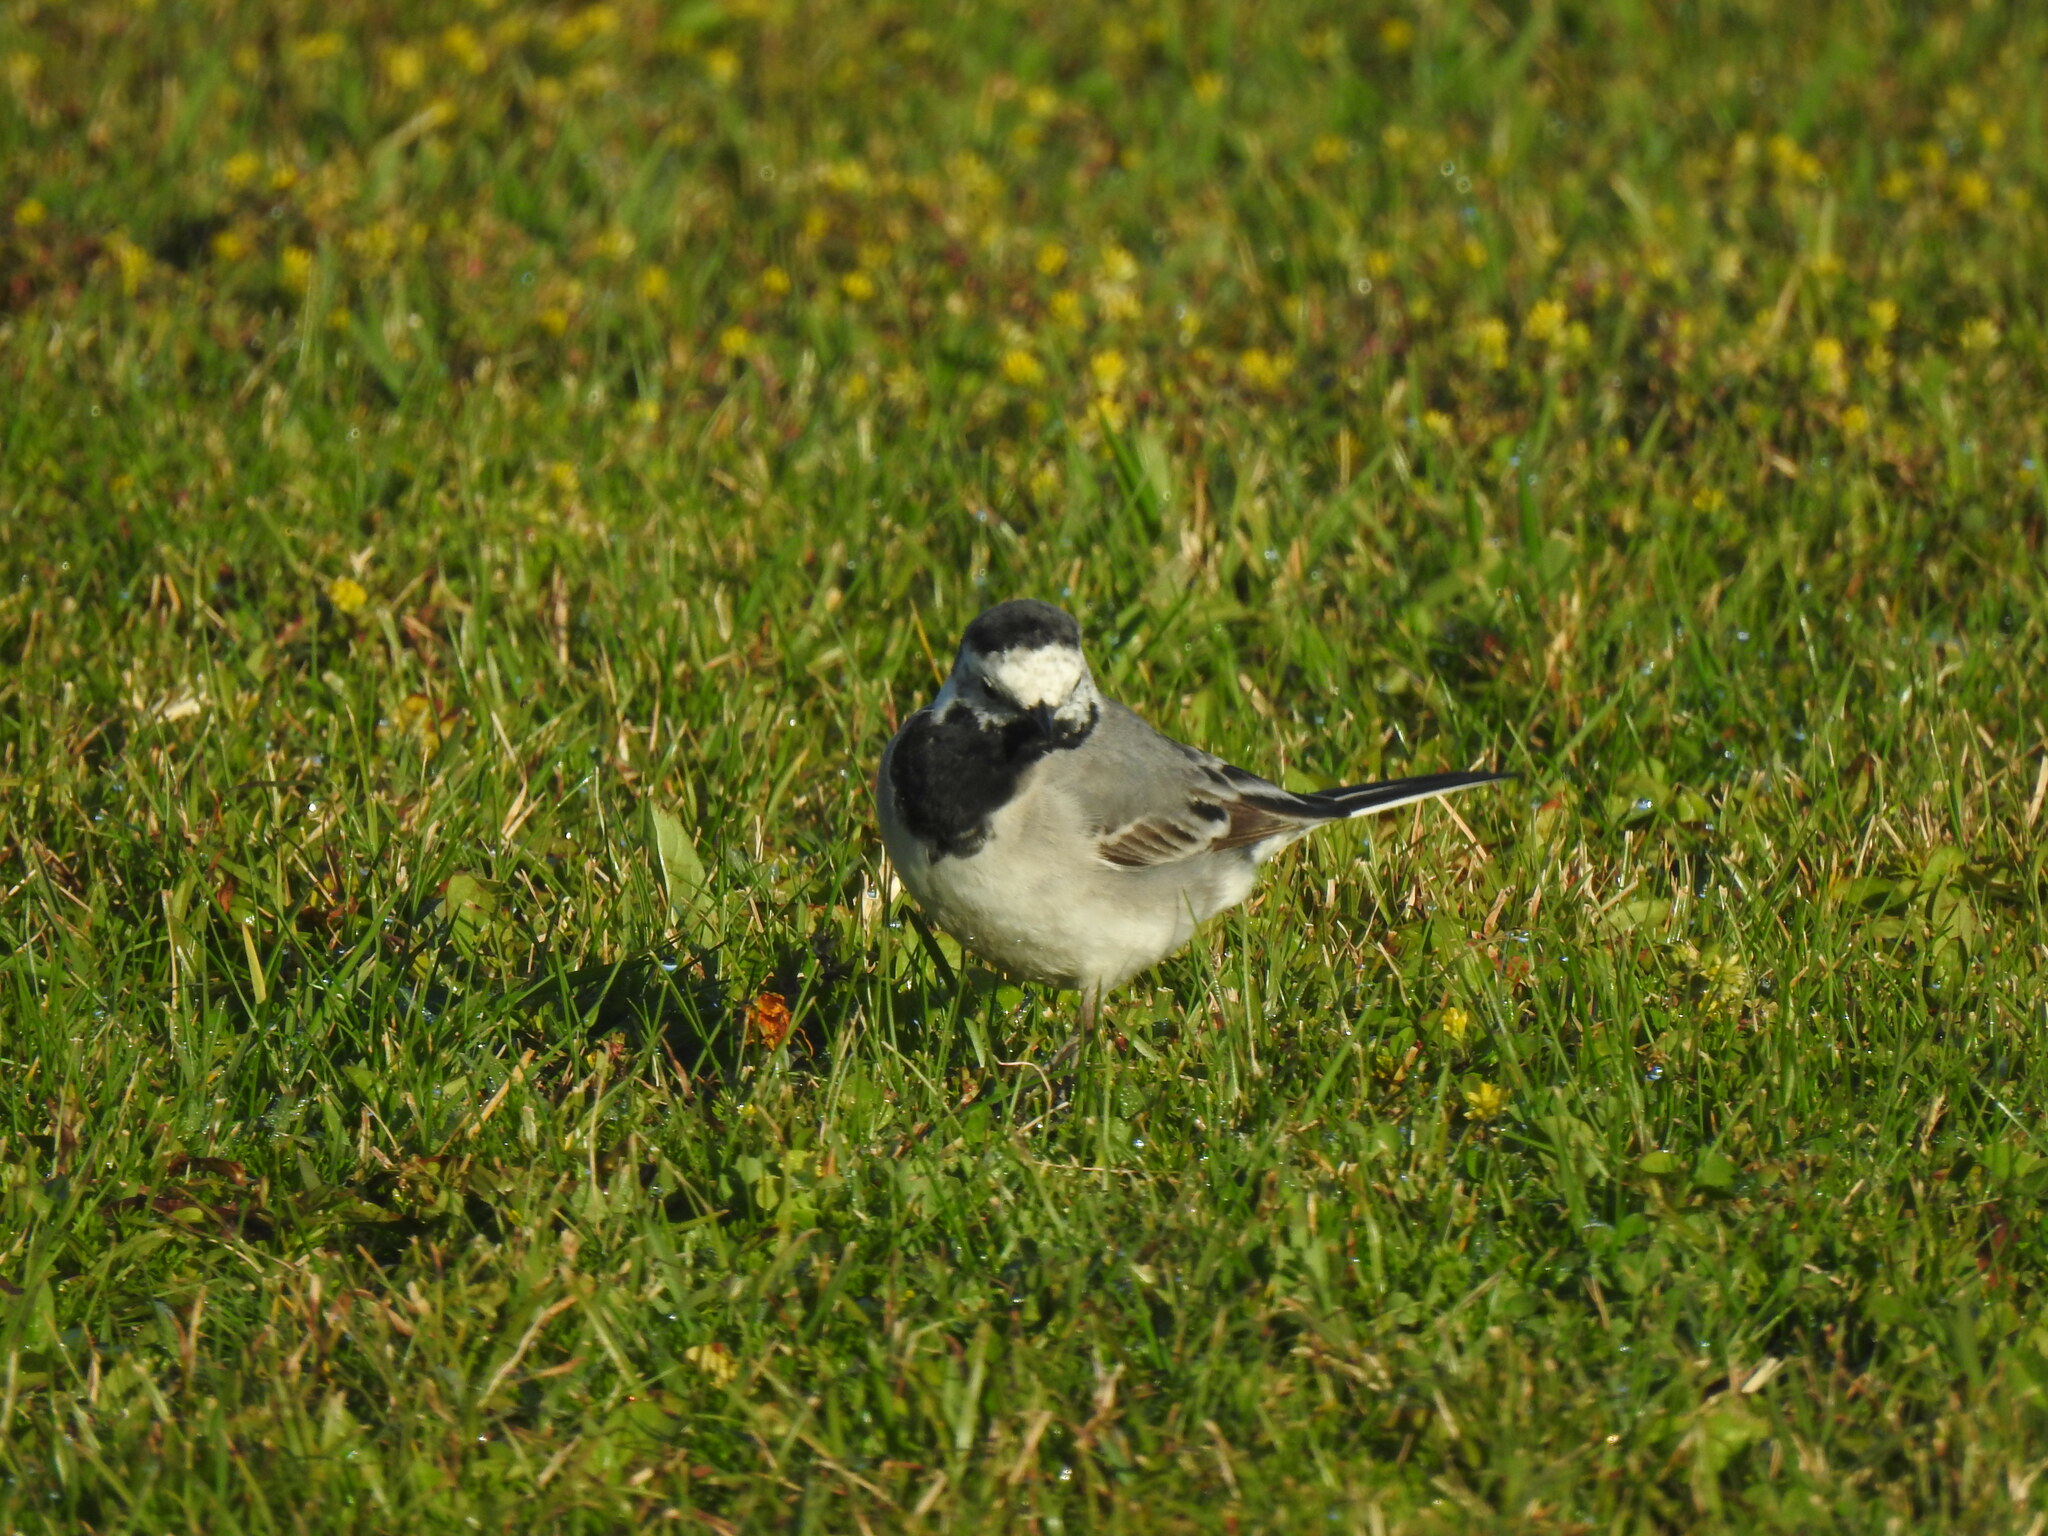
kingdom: Animalia
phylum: Chordata
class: Aves
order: Passeriformes
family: Motacillidae
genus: Motacilla
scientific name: Motacilla alba
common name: White wagtail
